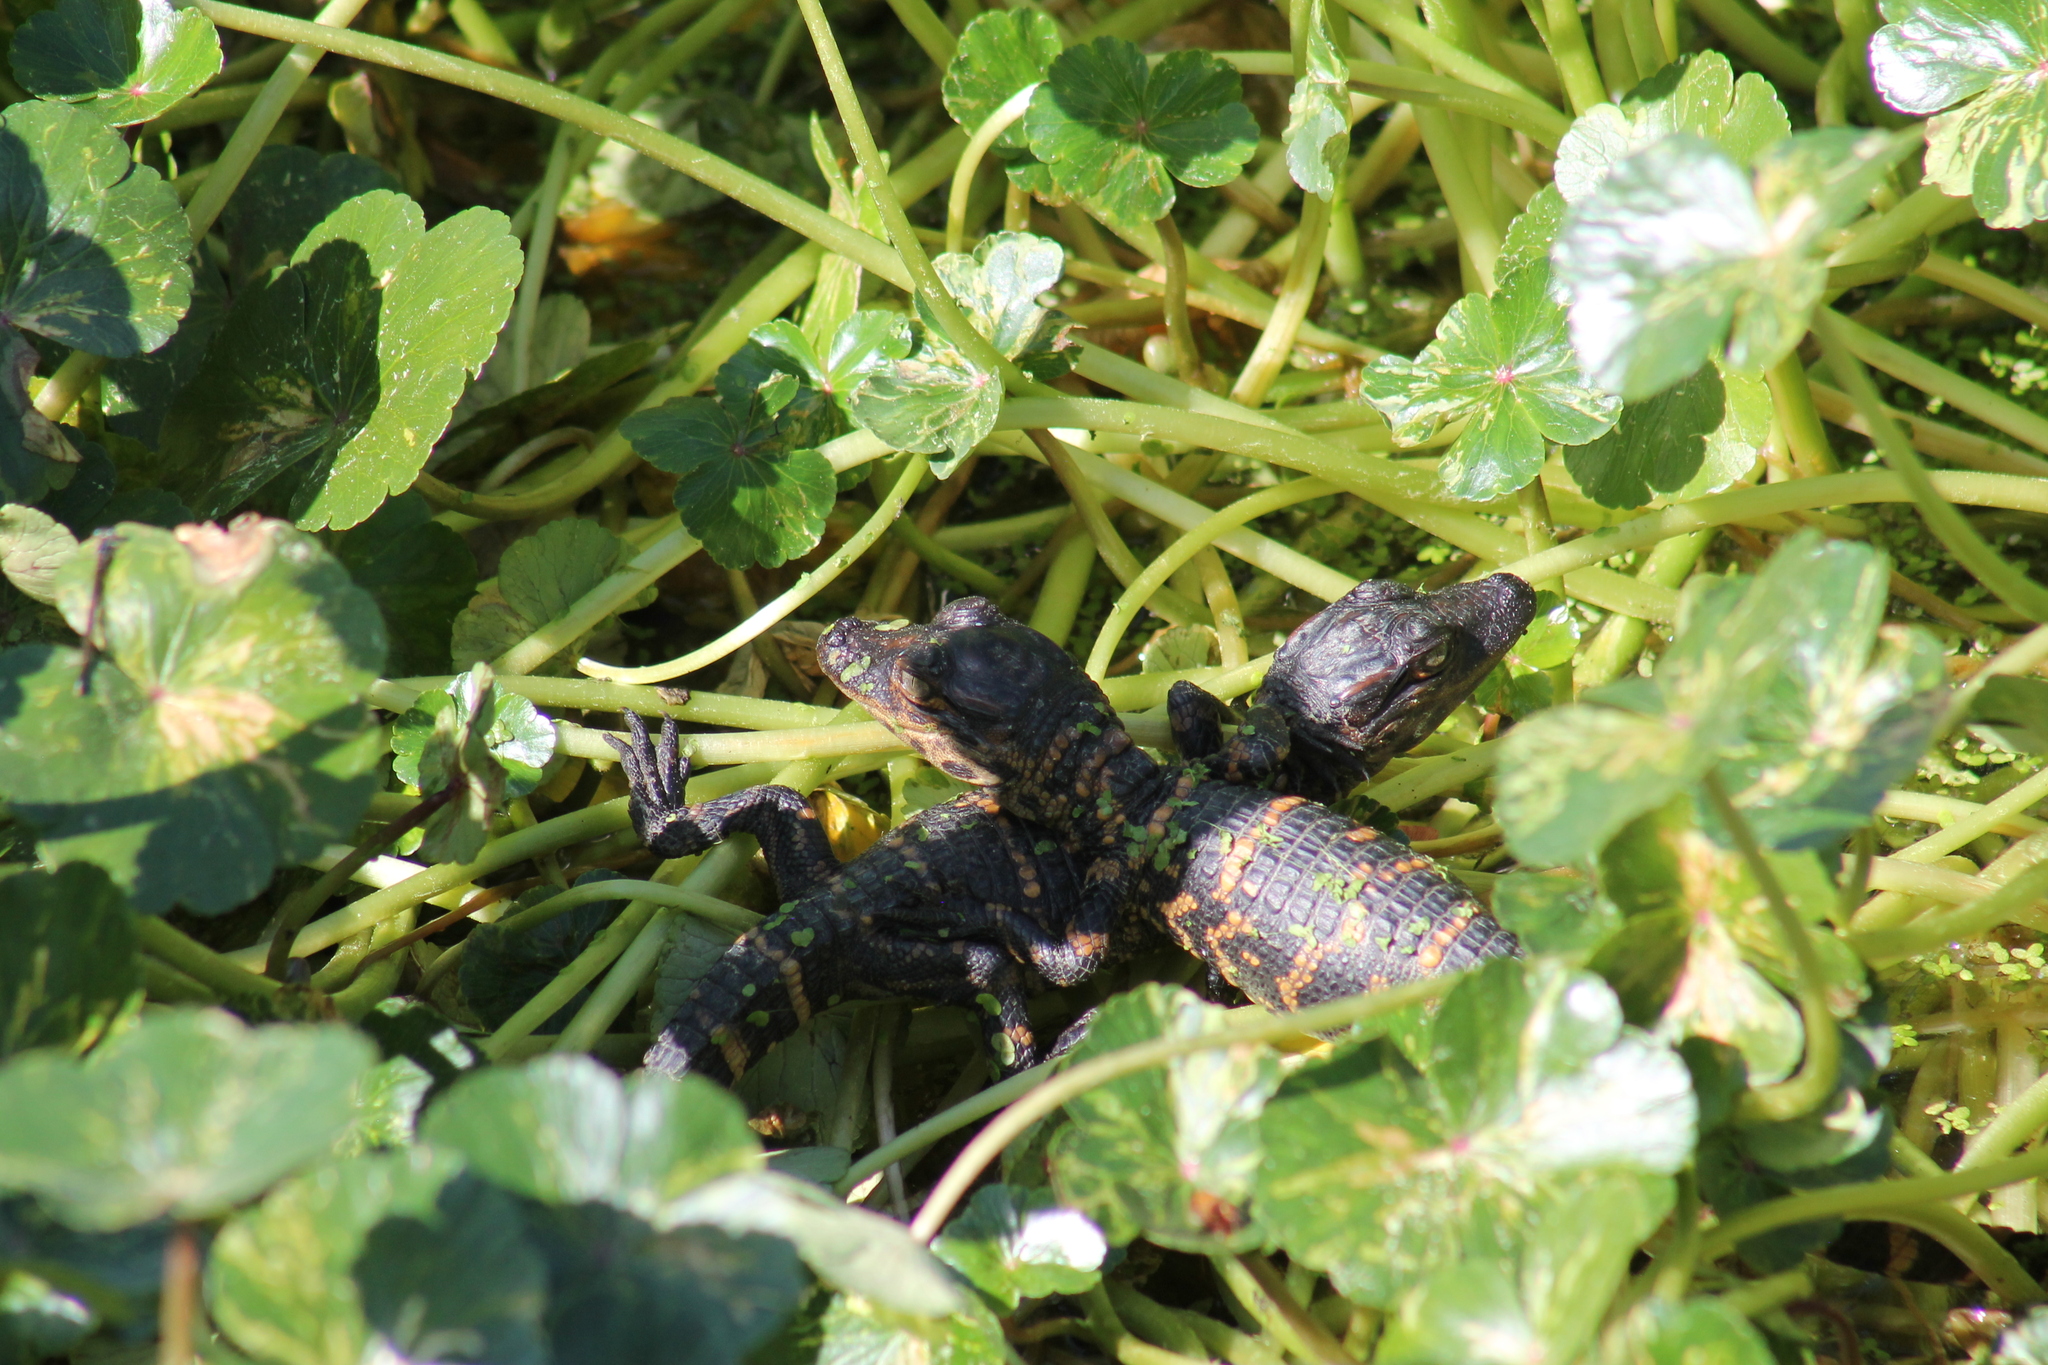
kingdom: Animalia
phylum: Chordata
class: Crocodylia
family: Alligatoridae
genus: Alligator
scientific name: Alligator mississippiensis
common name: American alligator
